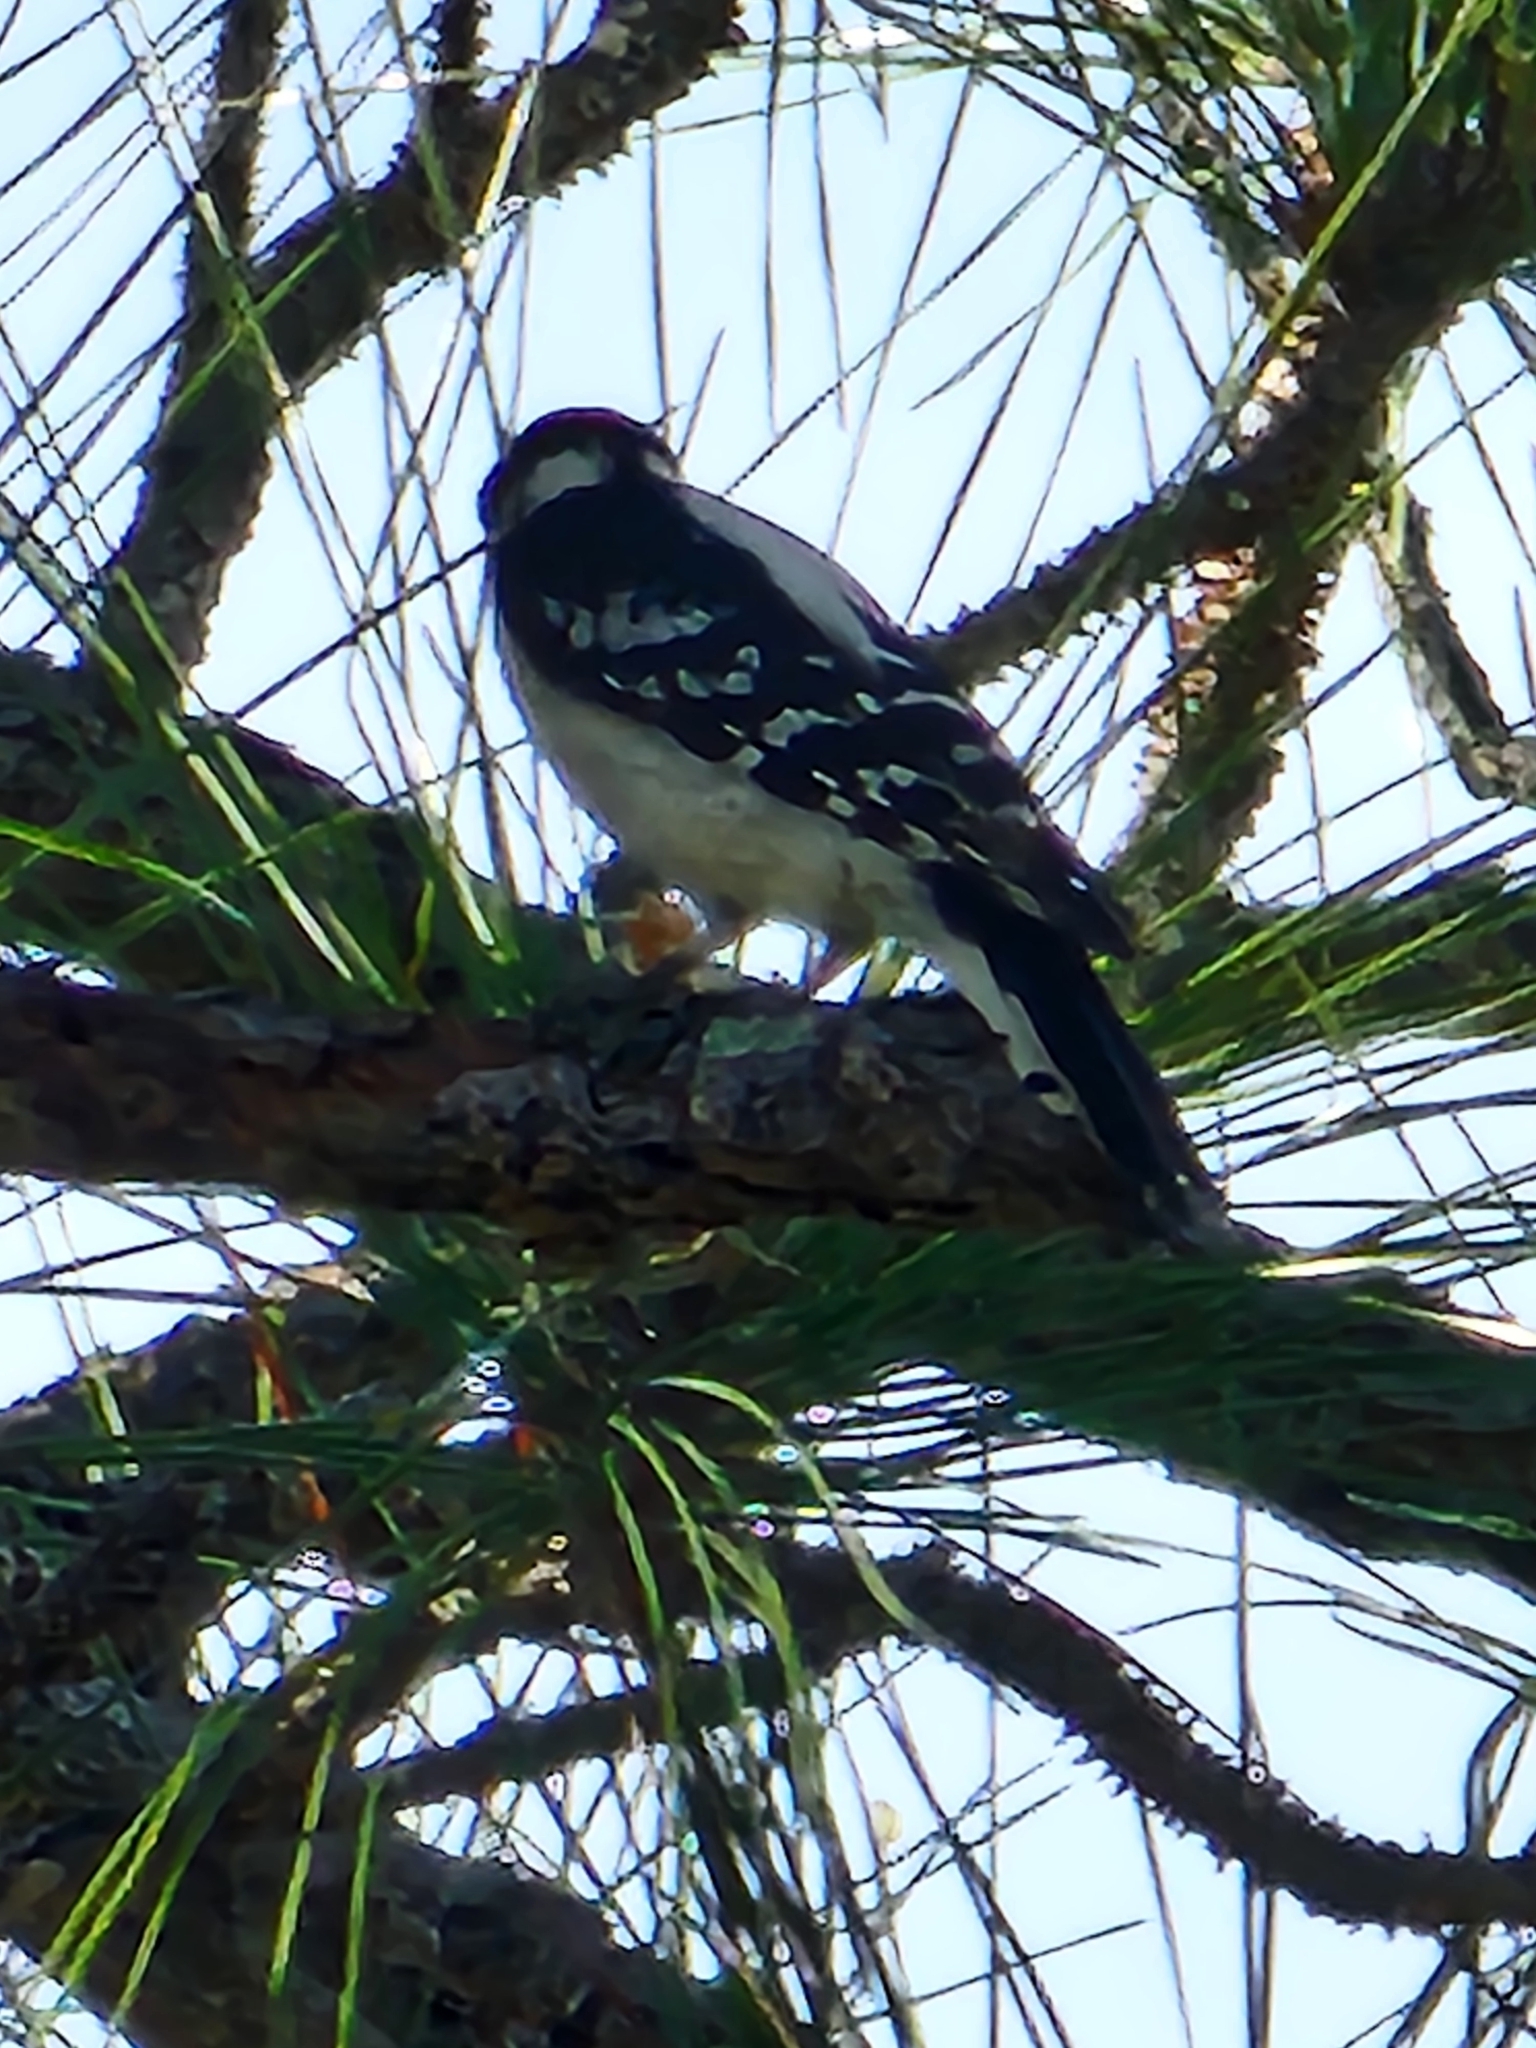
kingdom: Animalia
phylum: Chordata
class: Aves
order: Piciformes
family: Picidae
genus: Dryobates
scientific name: Dryobates pubescens
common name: Downy woodpecker
